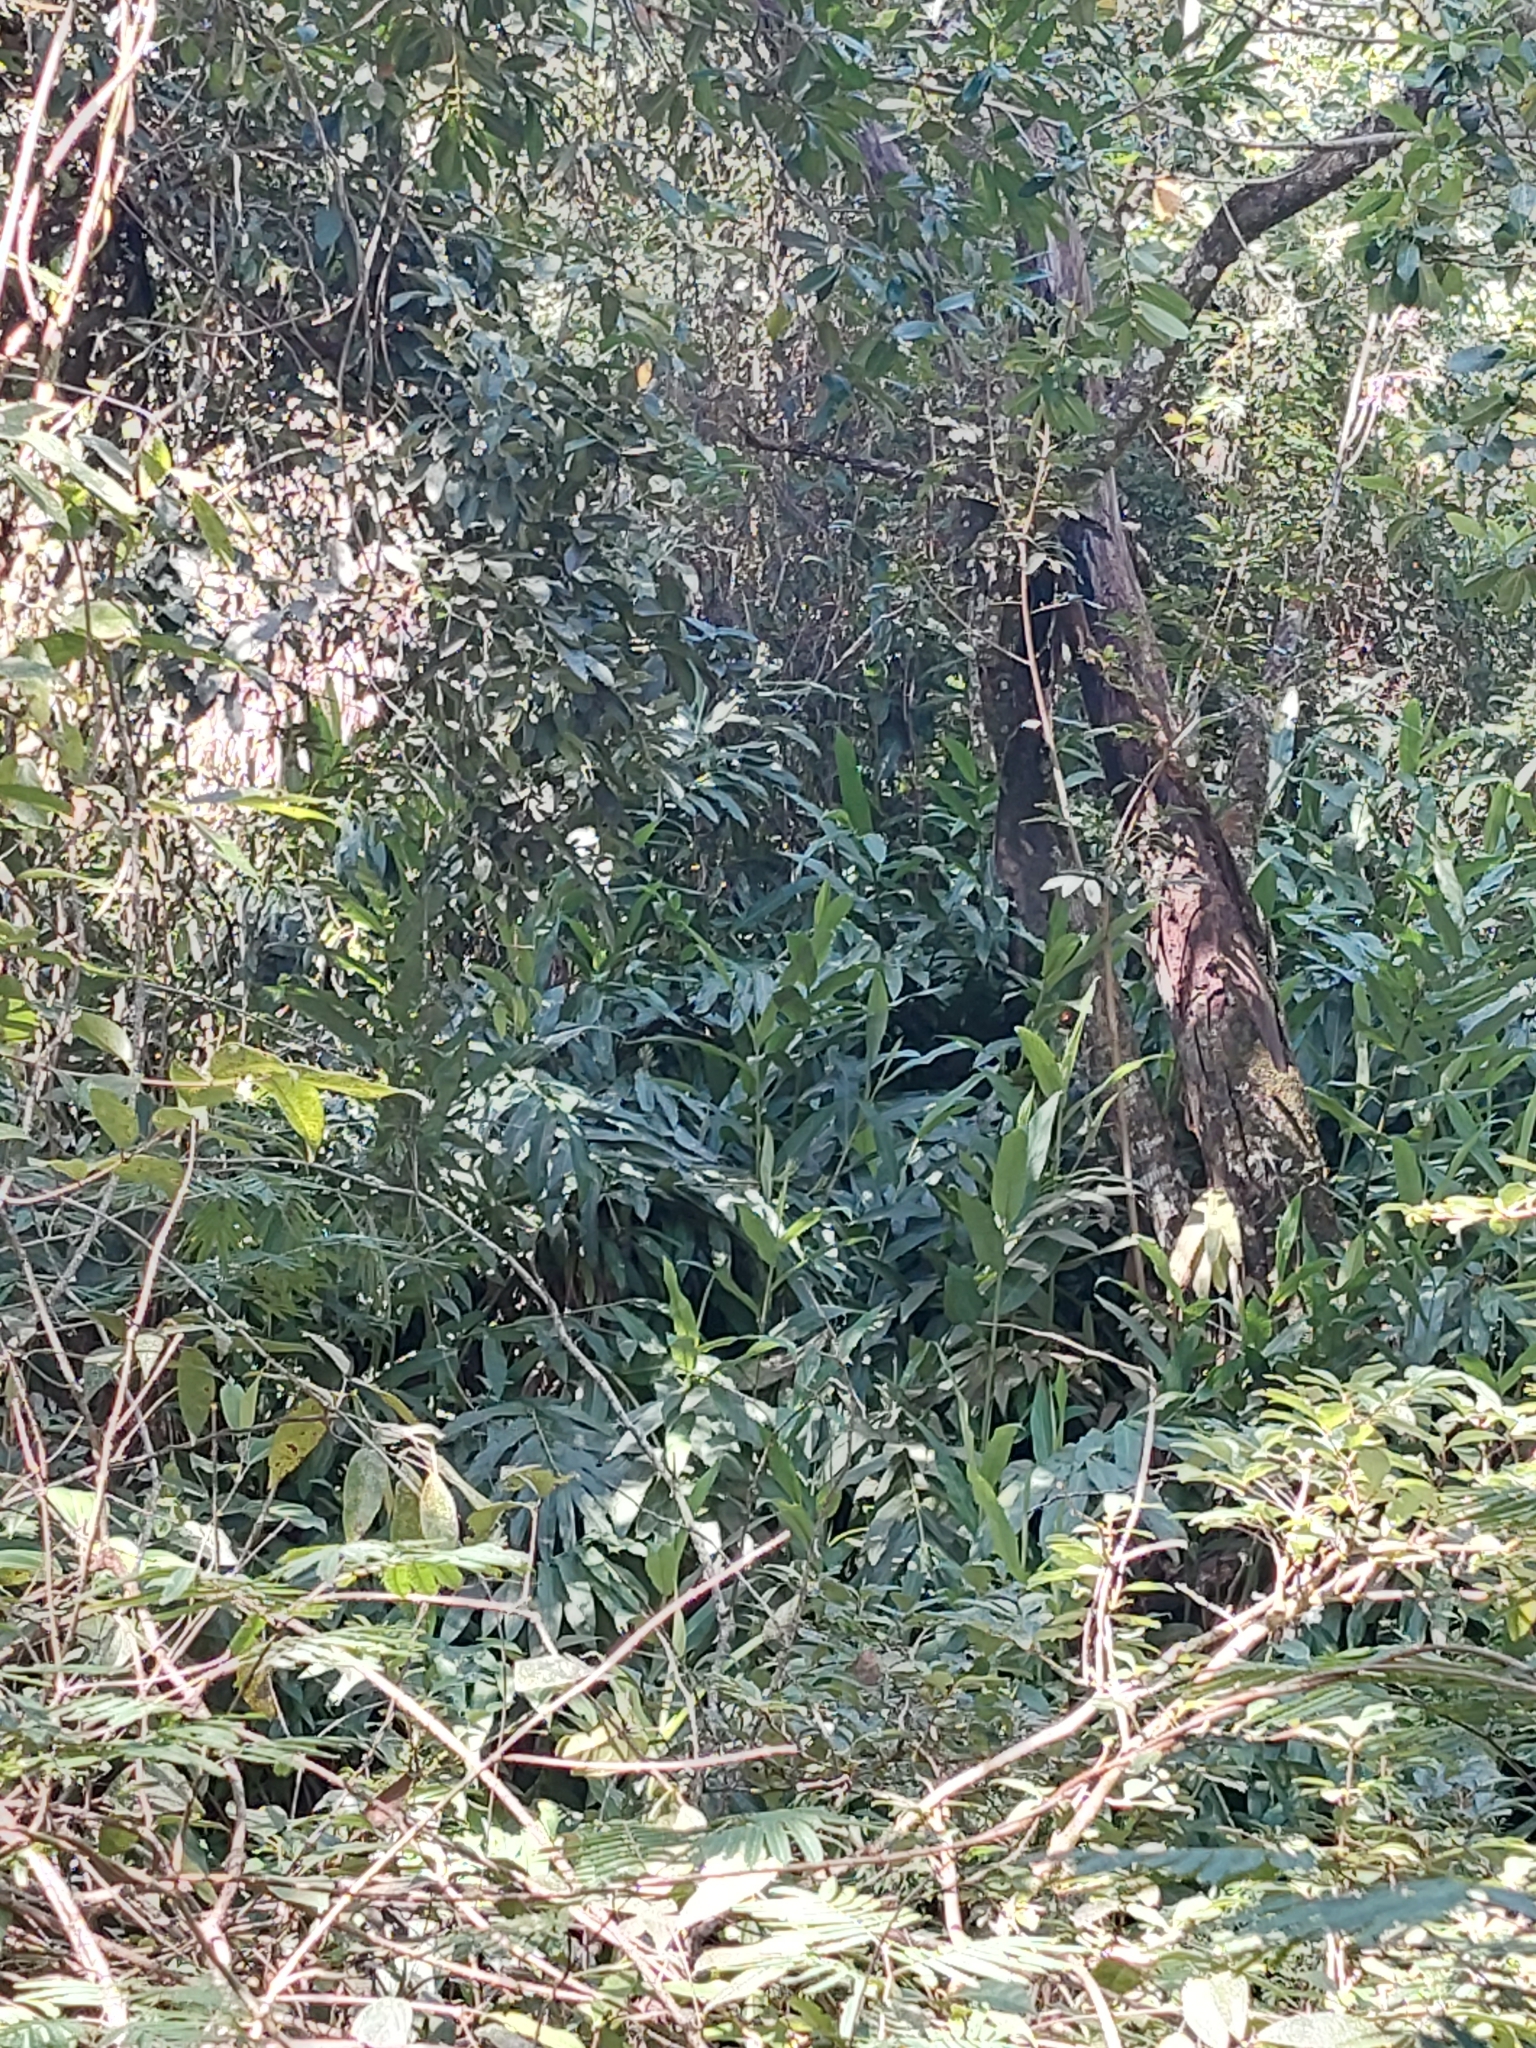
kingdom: Plantae
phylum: Tracheophyta
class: Liliopsida
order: Zingiberales
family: Zingiberaceae
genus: Hedychium
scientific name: Hedychium coronarium
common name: White garland-lily
